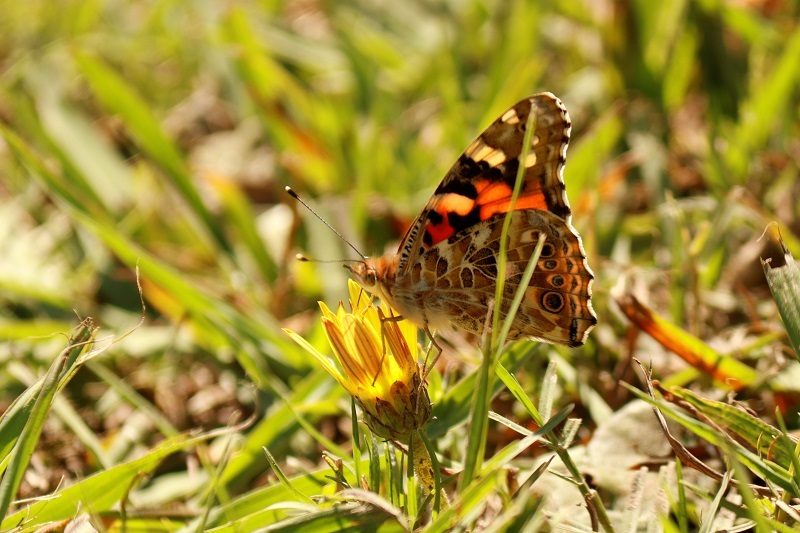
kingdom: Animalia
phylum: Arthropoda
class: Insecta
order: Lepidoptera
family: Nymphalidae
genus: Vanessa
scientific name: Vanessa cardui
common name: Painted lady
